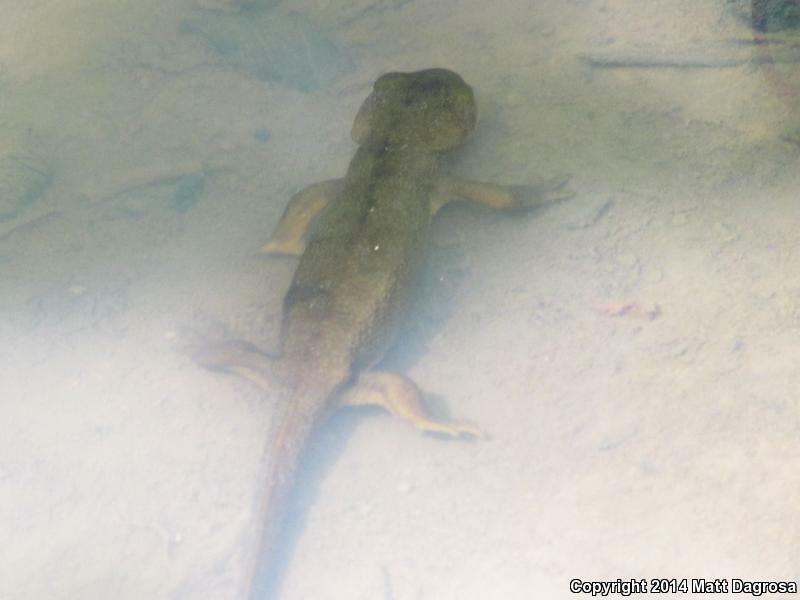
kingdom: Animalia
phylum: Chordata
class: Amphibia
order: Caudata
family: Salamandridae
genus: Taricha
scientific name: Taricha granulosa
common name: Roughskin newt
